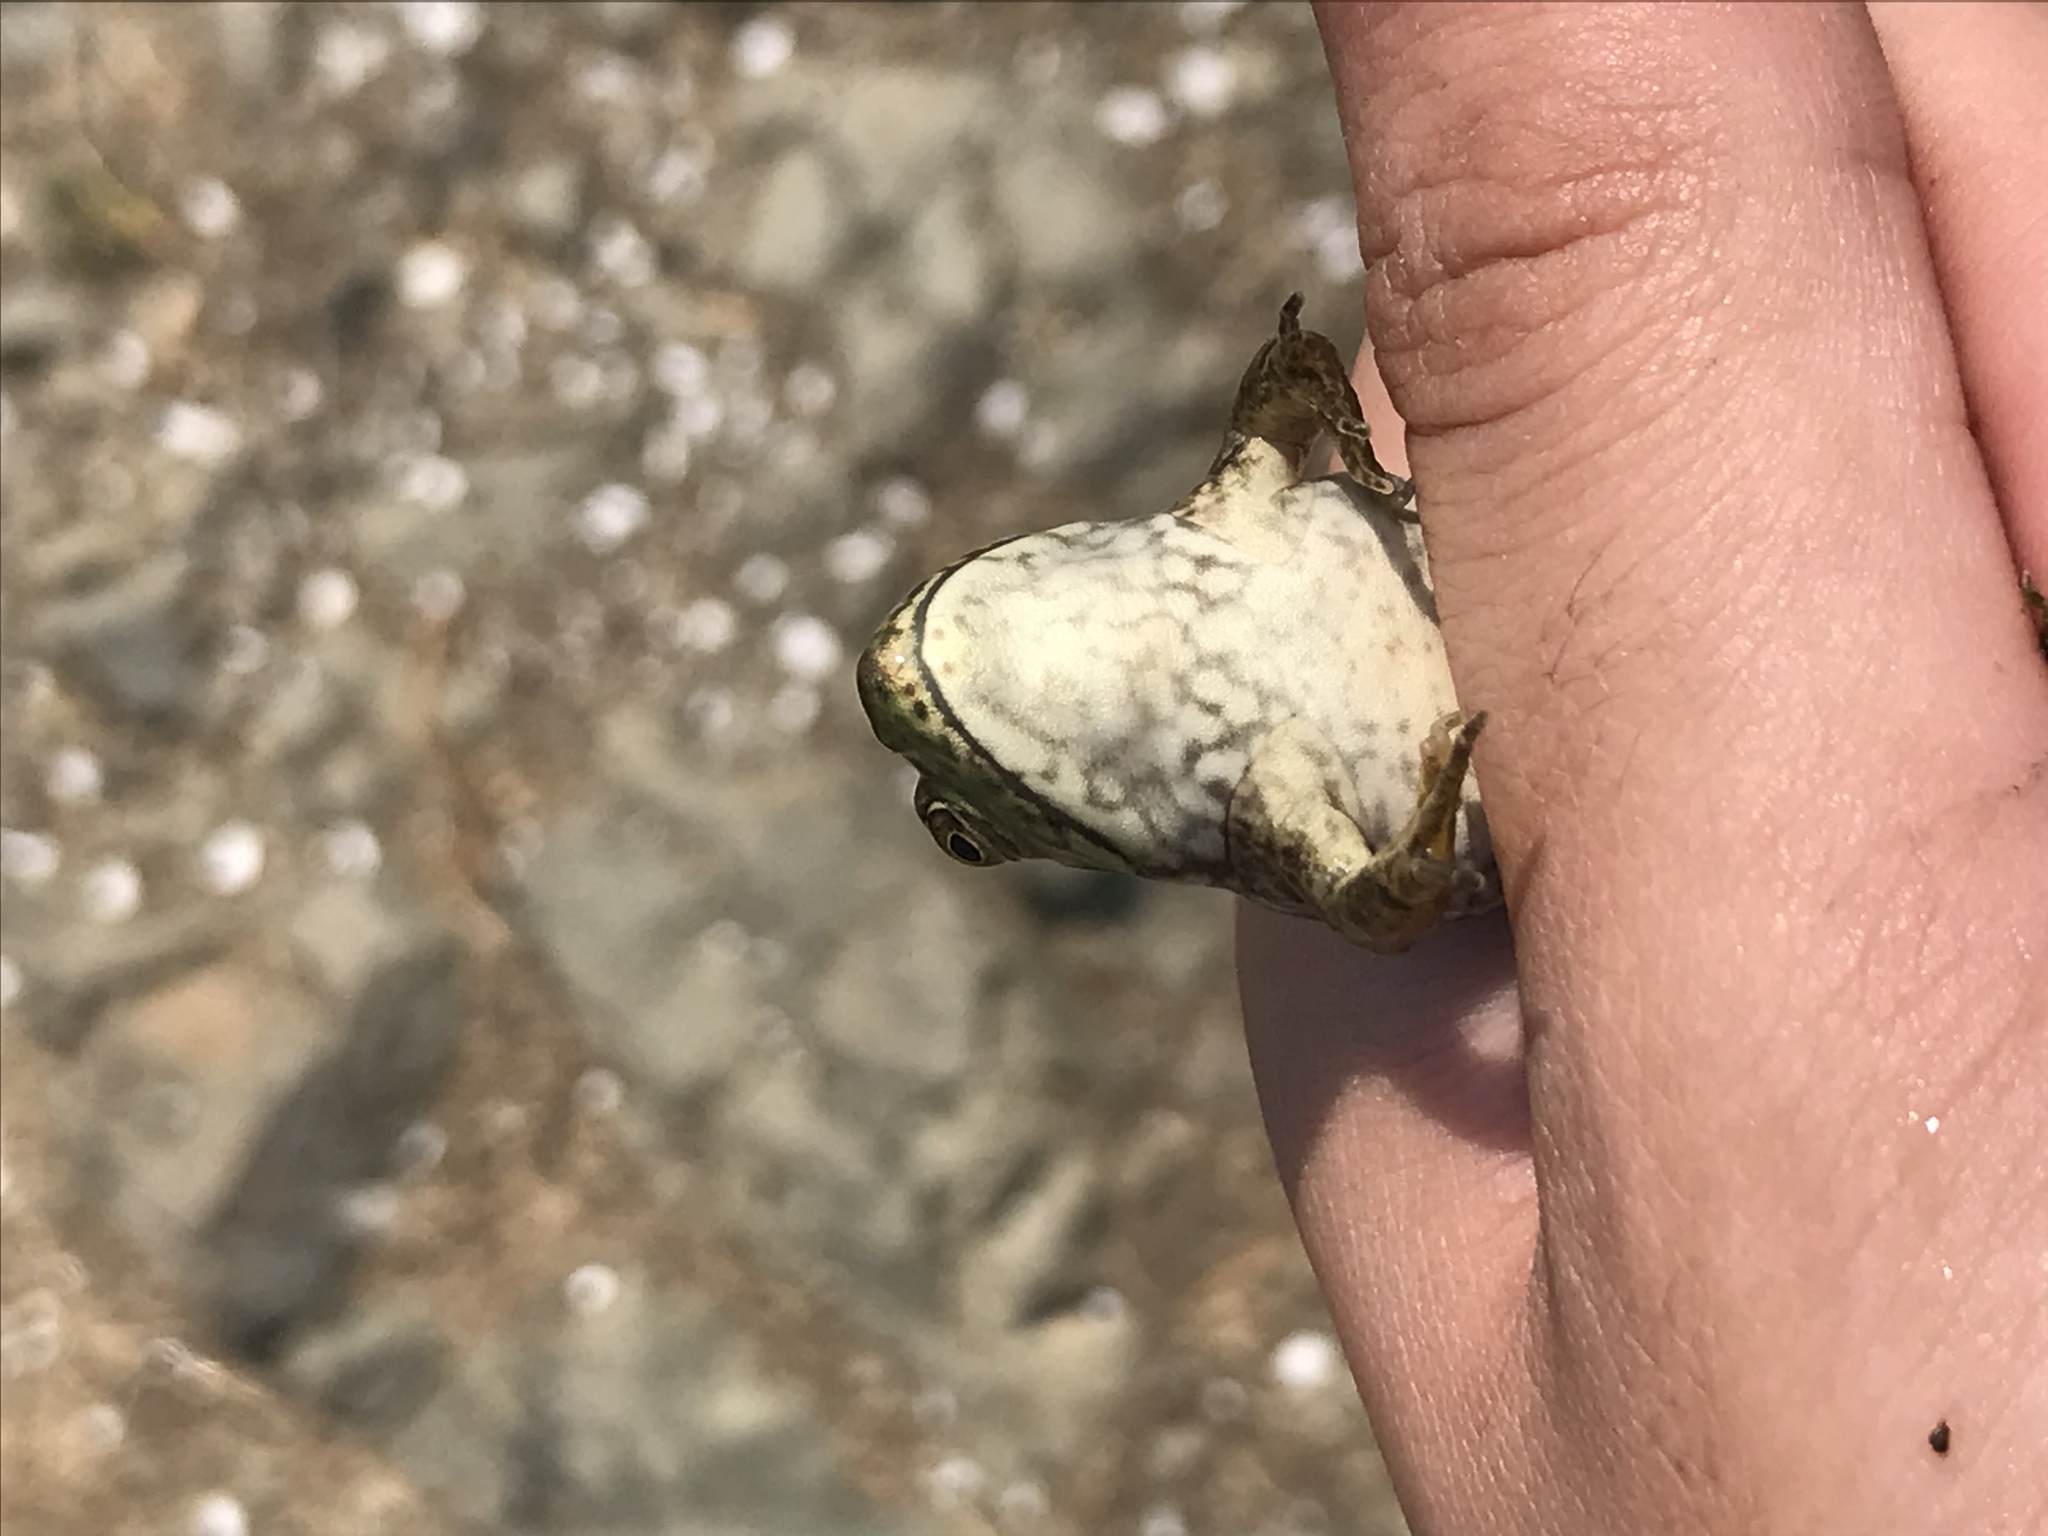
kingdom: Animalia
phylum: Chordata
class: Amphibia
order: Anura
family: Ranidae
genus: Lithobates
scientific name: Lithobates catesbeianus
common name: American bullfrog
